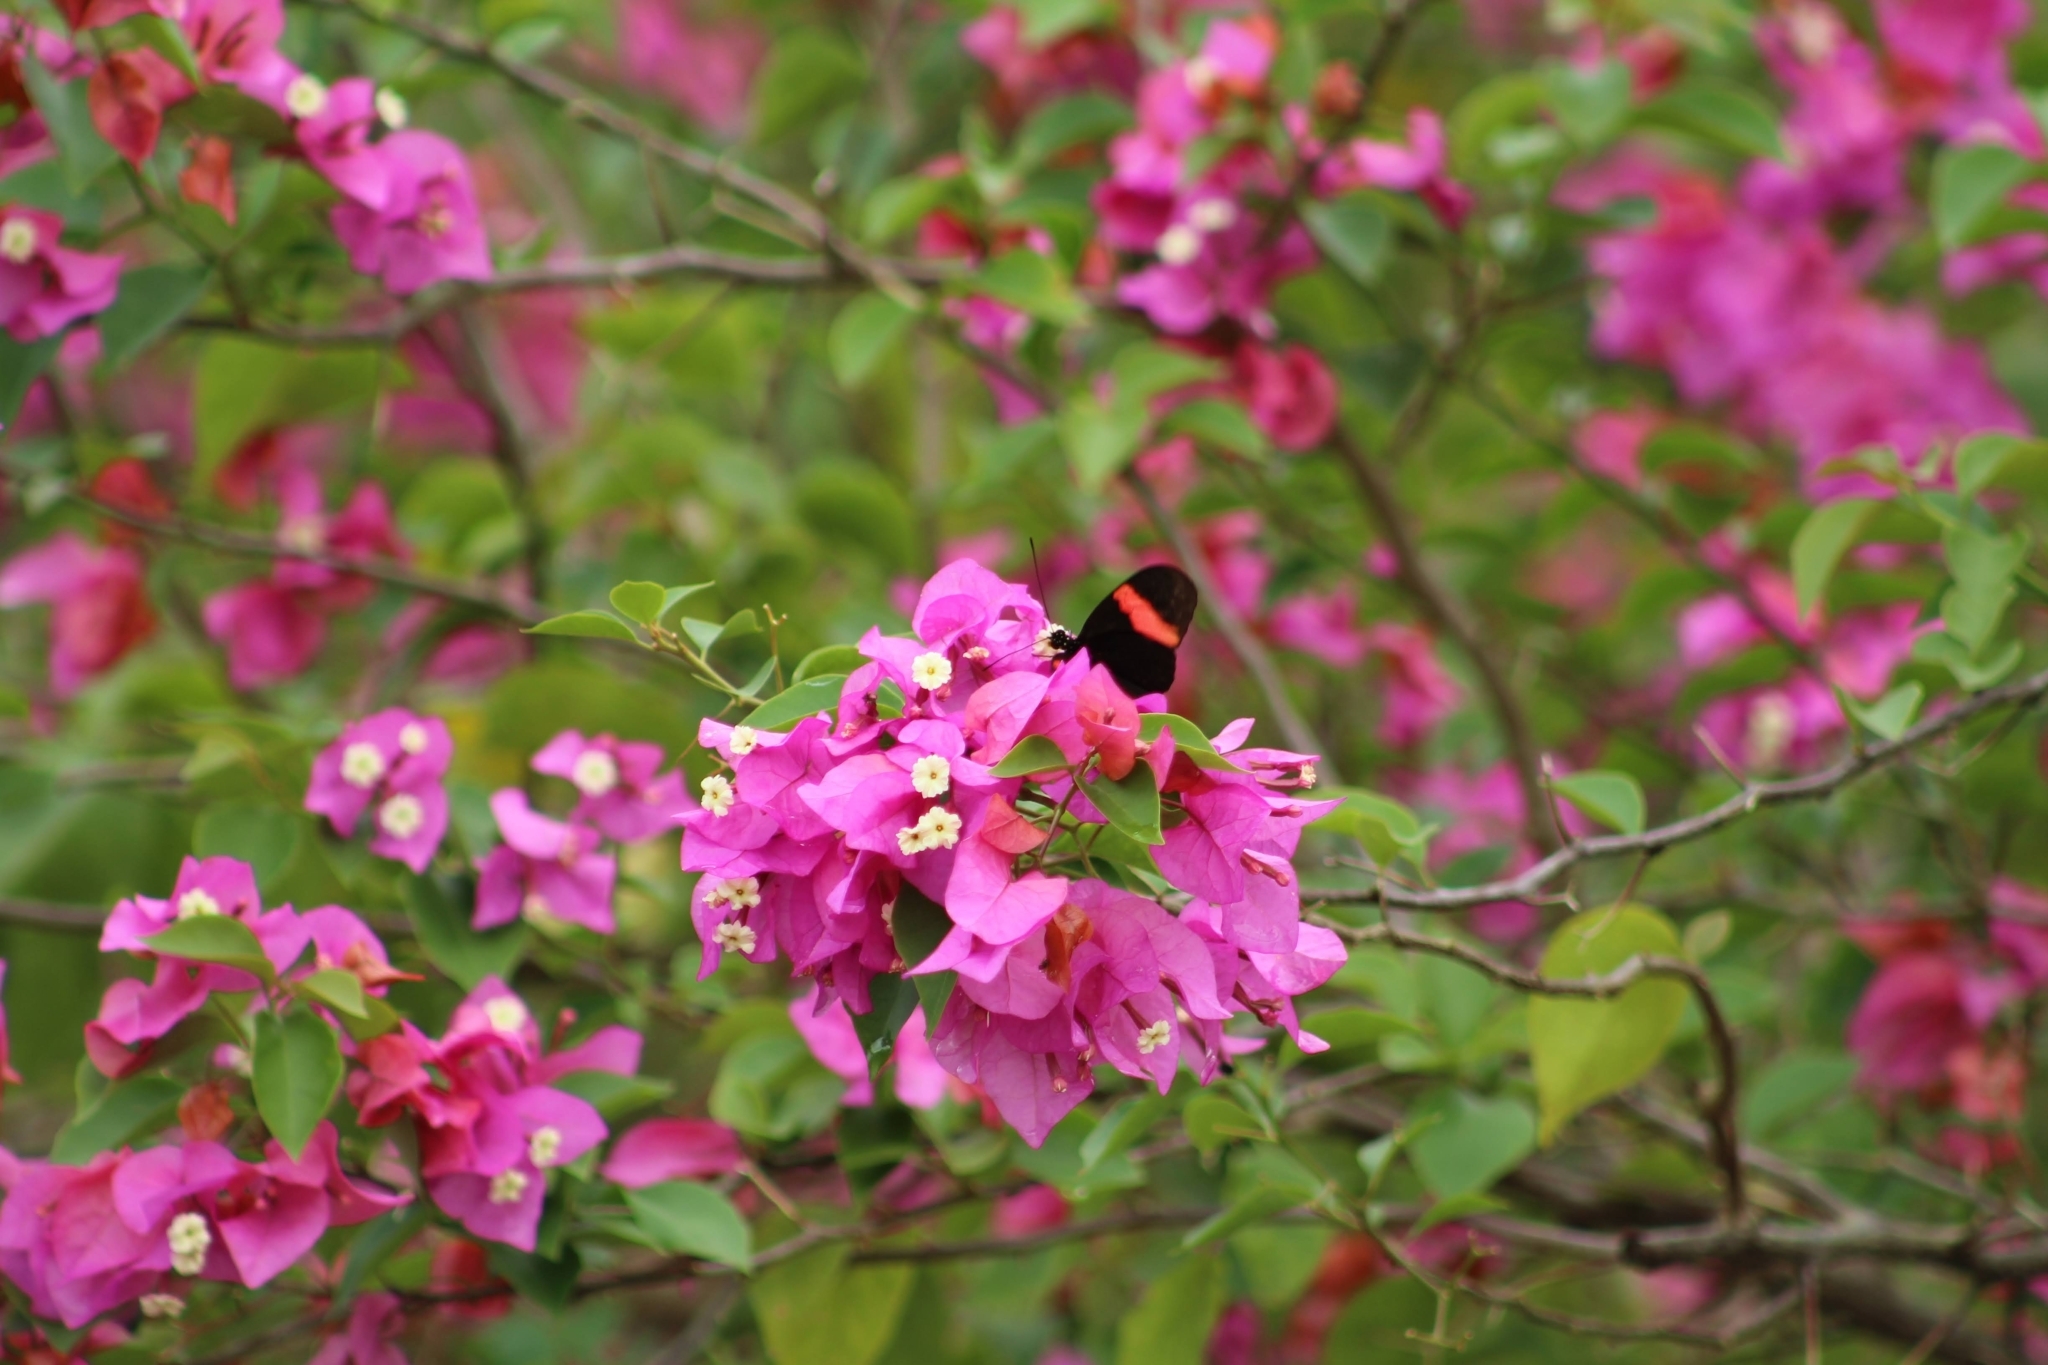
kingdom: Animalia
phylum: Arthropoda
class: Insecta
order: Lepidoptera
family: Nymphalidae
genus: Heliconius
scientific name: Heliconius erato
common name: Common patch longwing
